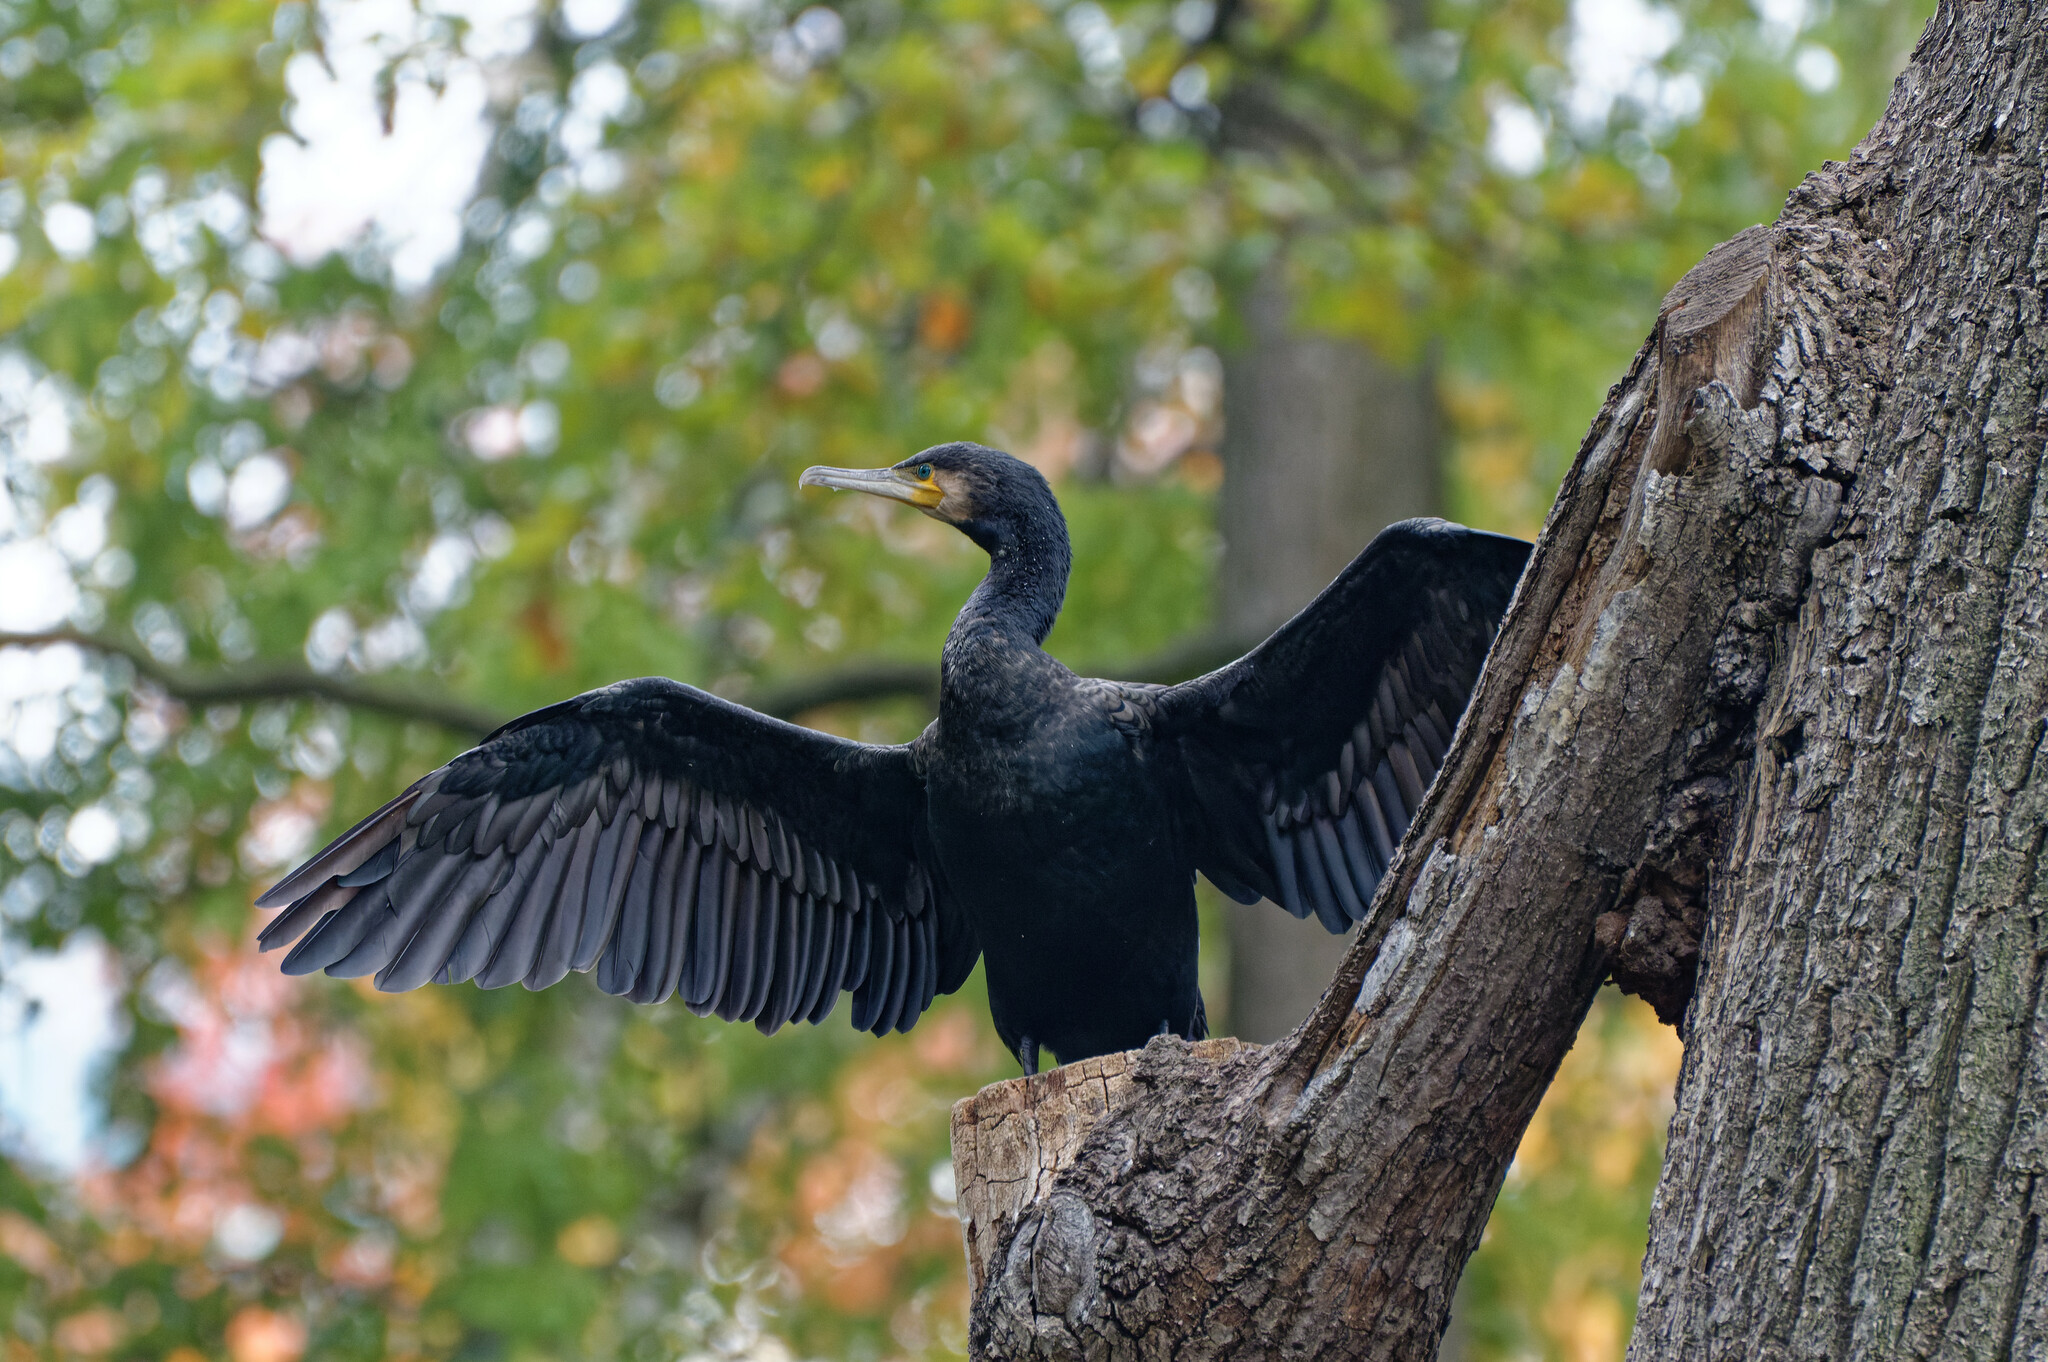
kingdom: Animalia
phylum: Chordata
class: Aves
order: Suliformes
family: Phalacrocoracidae
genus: Phalacrocorax
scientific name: Phalacrocorax carbo
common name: Great cormorant
